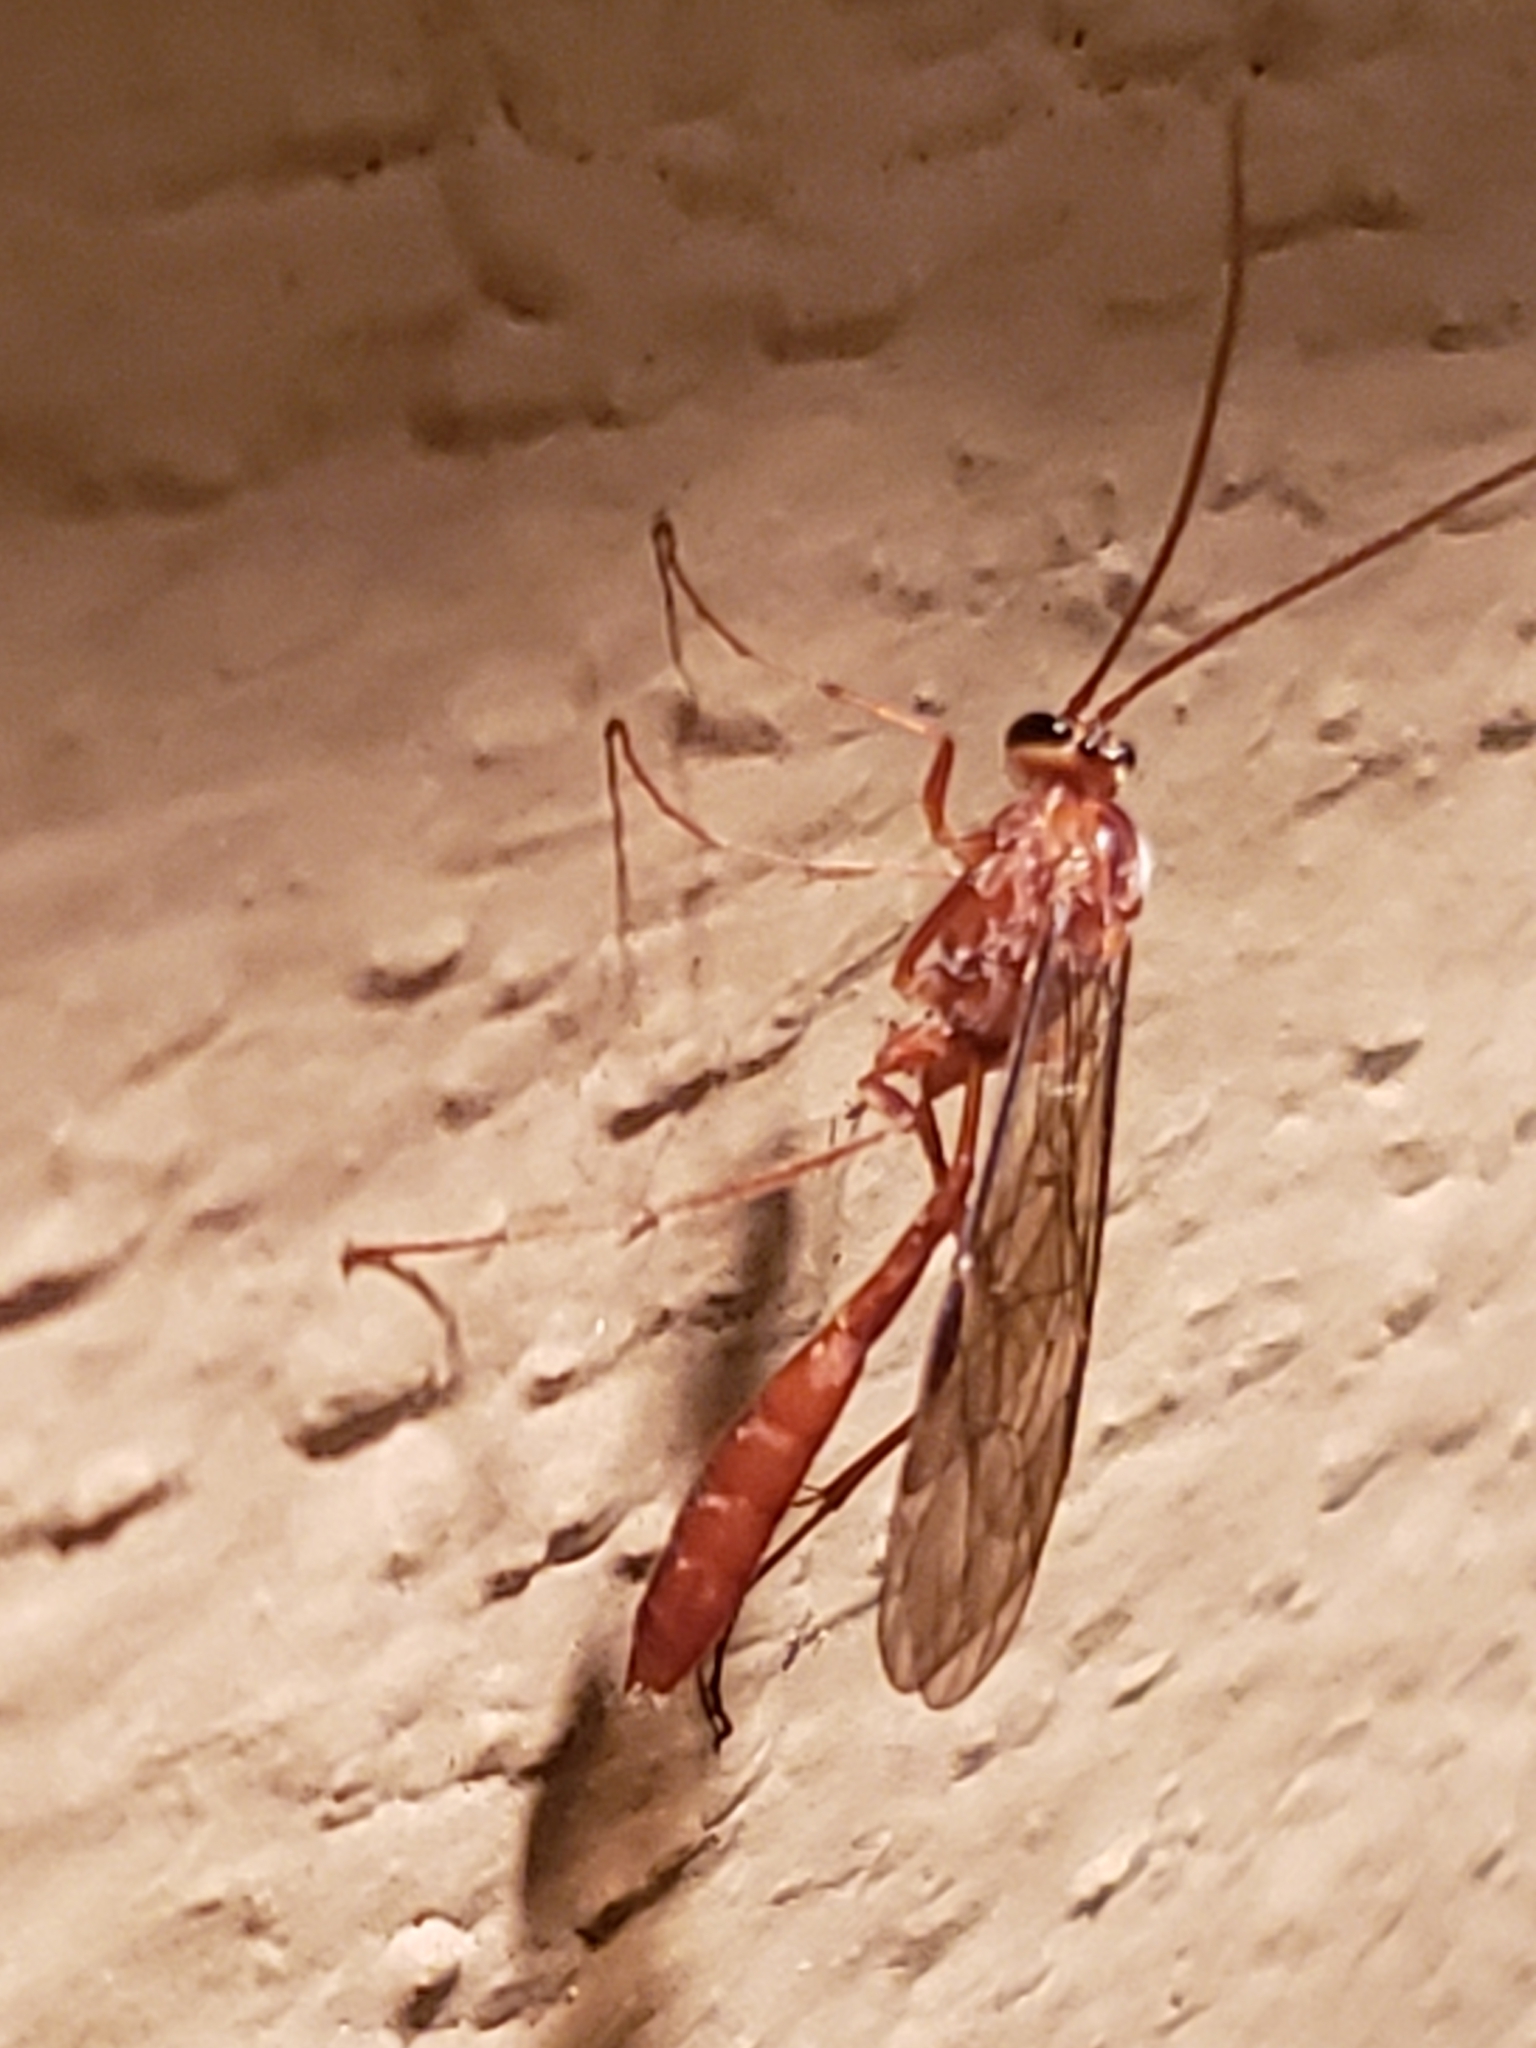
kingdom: Animalia
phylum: Arthropoda
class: Insecta
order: Hymenoptera
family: Ichneumonidae
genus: Ophion
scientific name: Ophion
